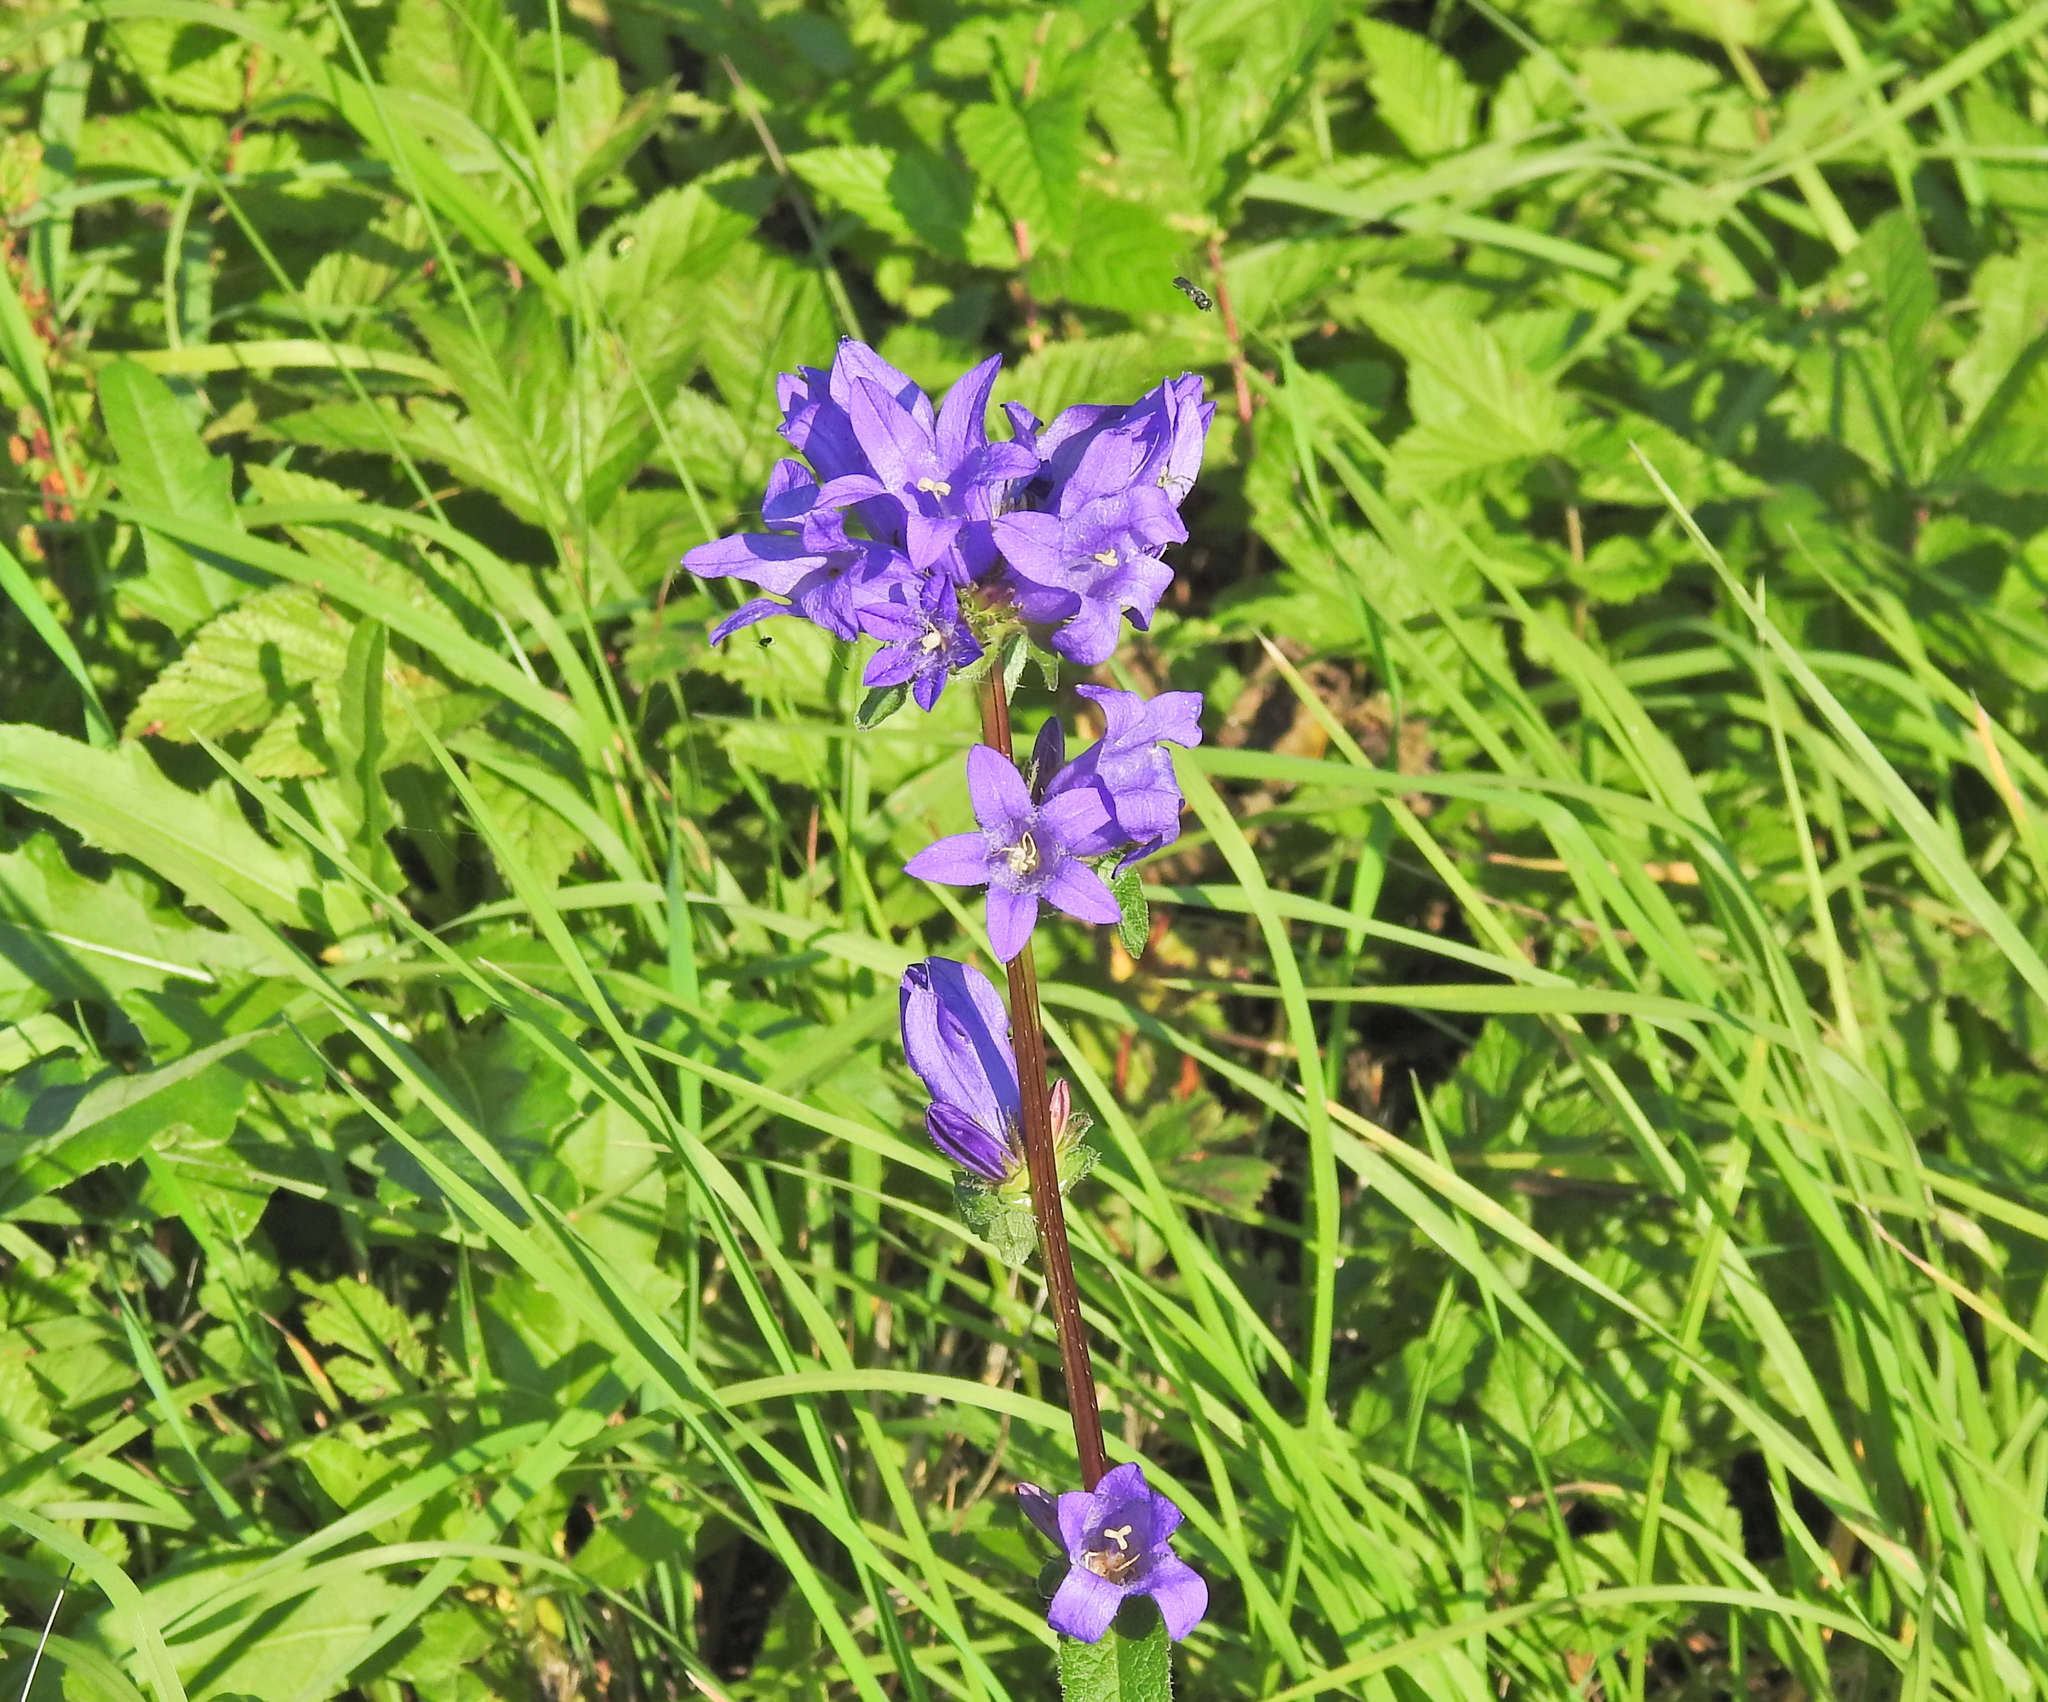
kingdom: Plantae
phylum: Tracheophyta
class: Magnoliopsida
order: Asterales
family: Campanulaceae
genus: Campanula
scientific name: Campanula glomerata
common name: Clustered bellflower
